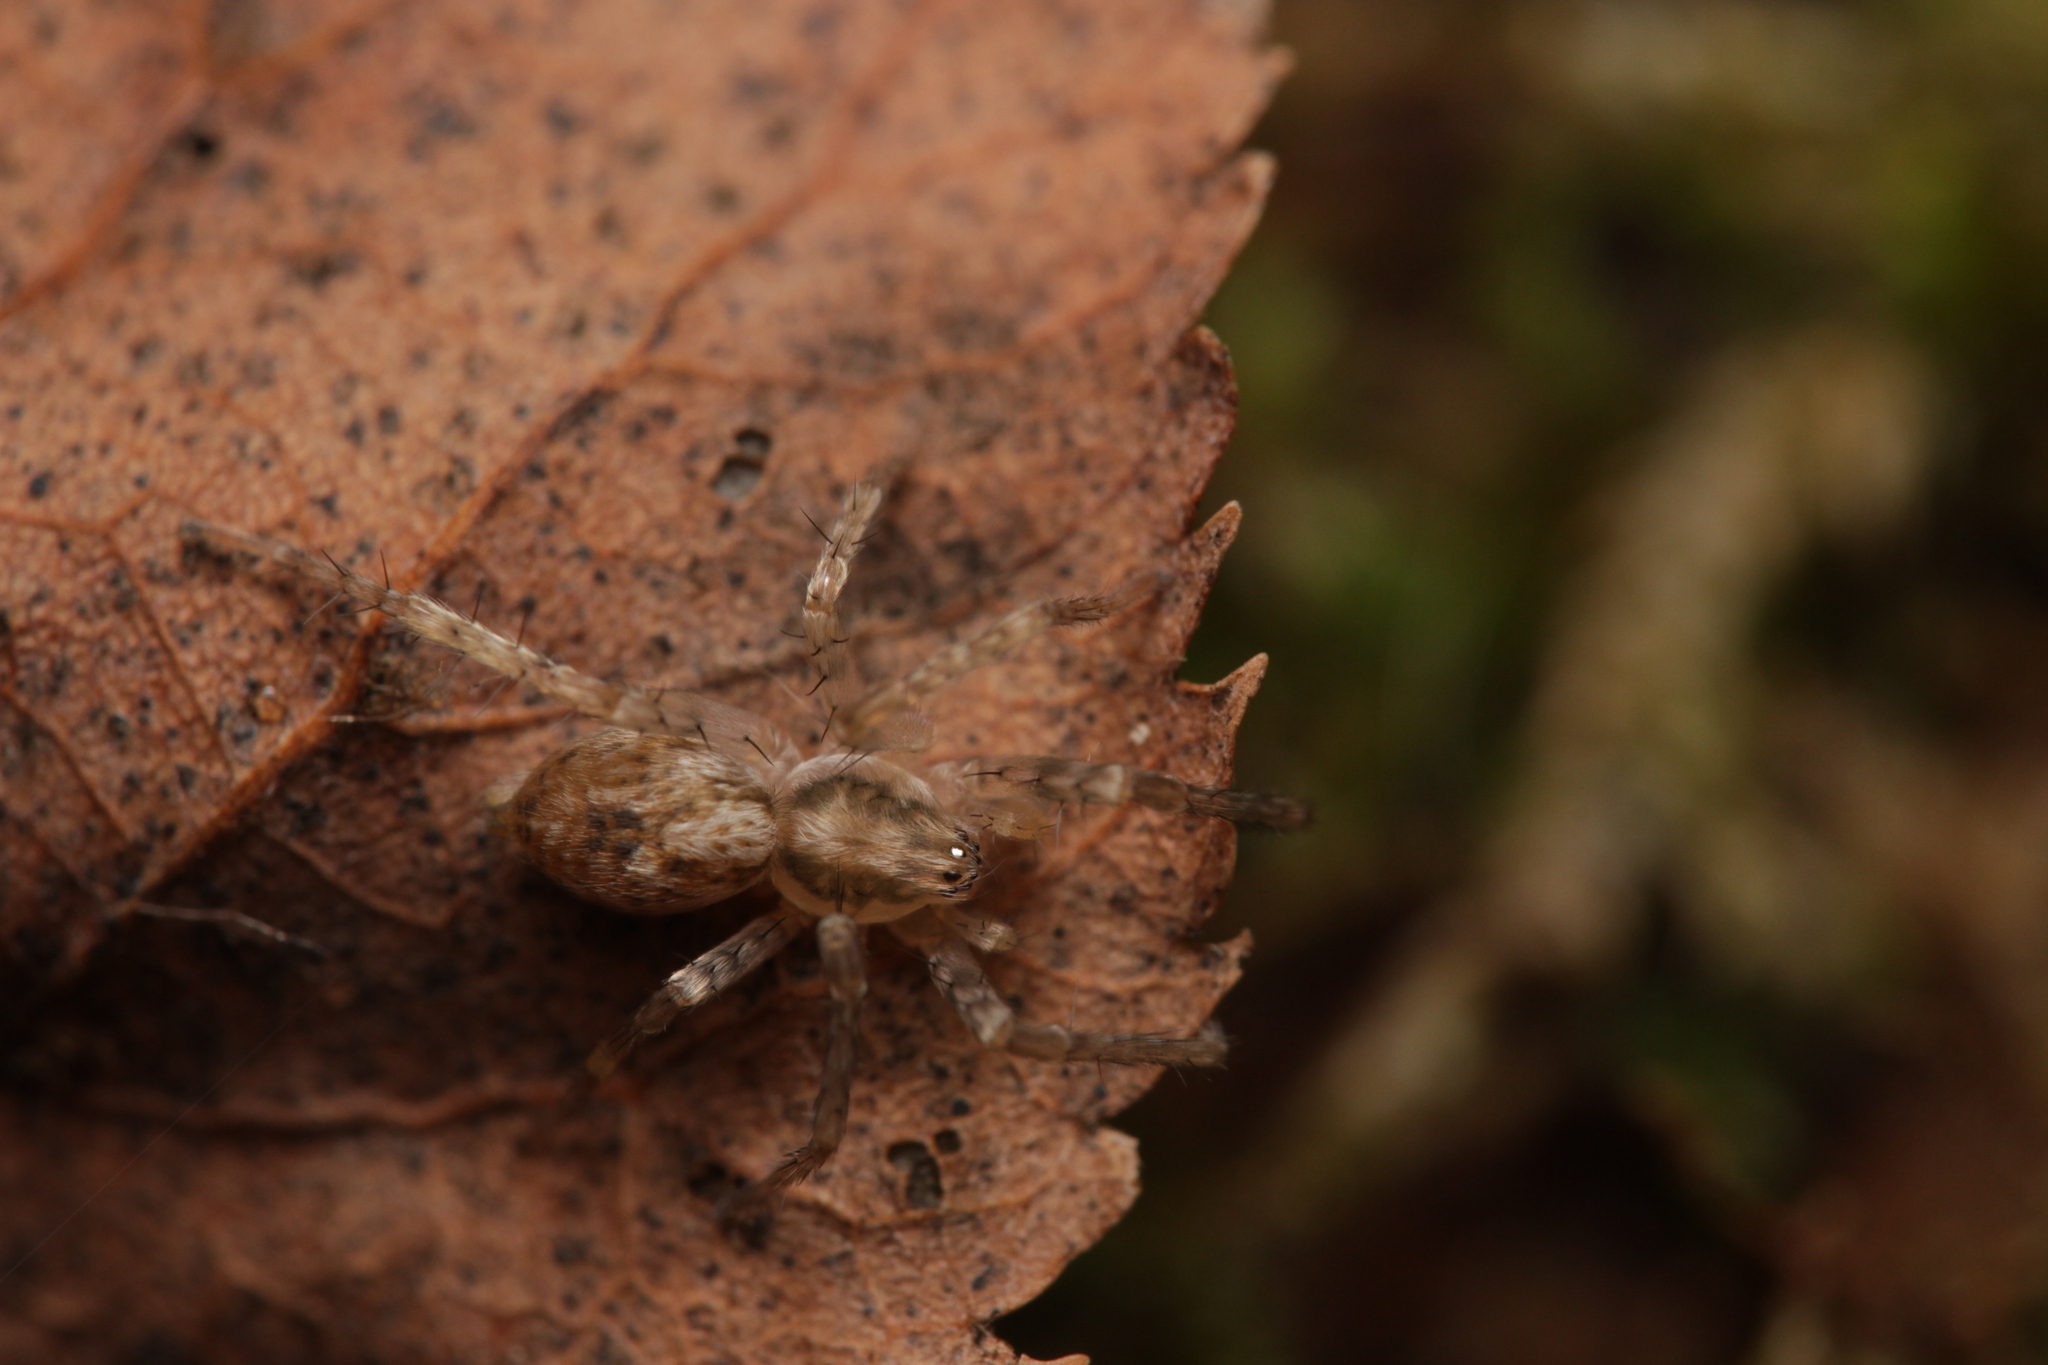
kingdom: Animalia
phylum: Arthropoda
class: Arachnida
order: Araneae
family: Anyphaenidae
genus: Anyphaena
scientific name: Anyphaena accentuata
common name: Buzzing spider
